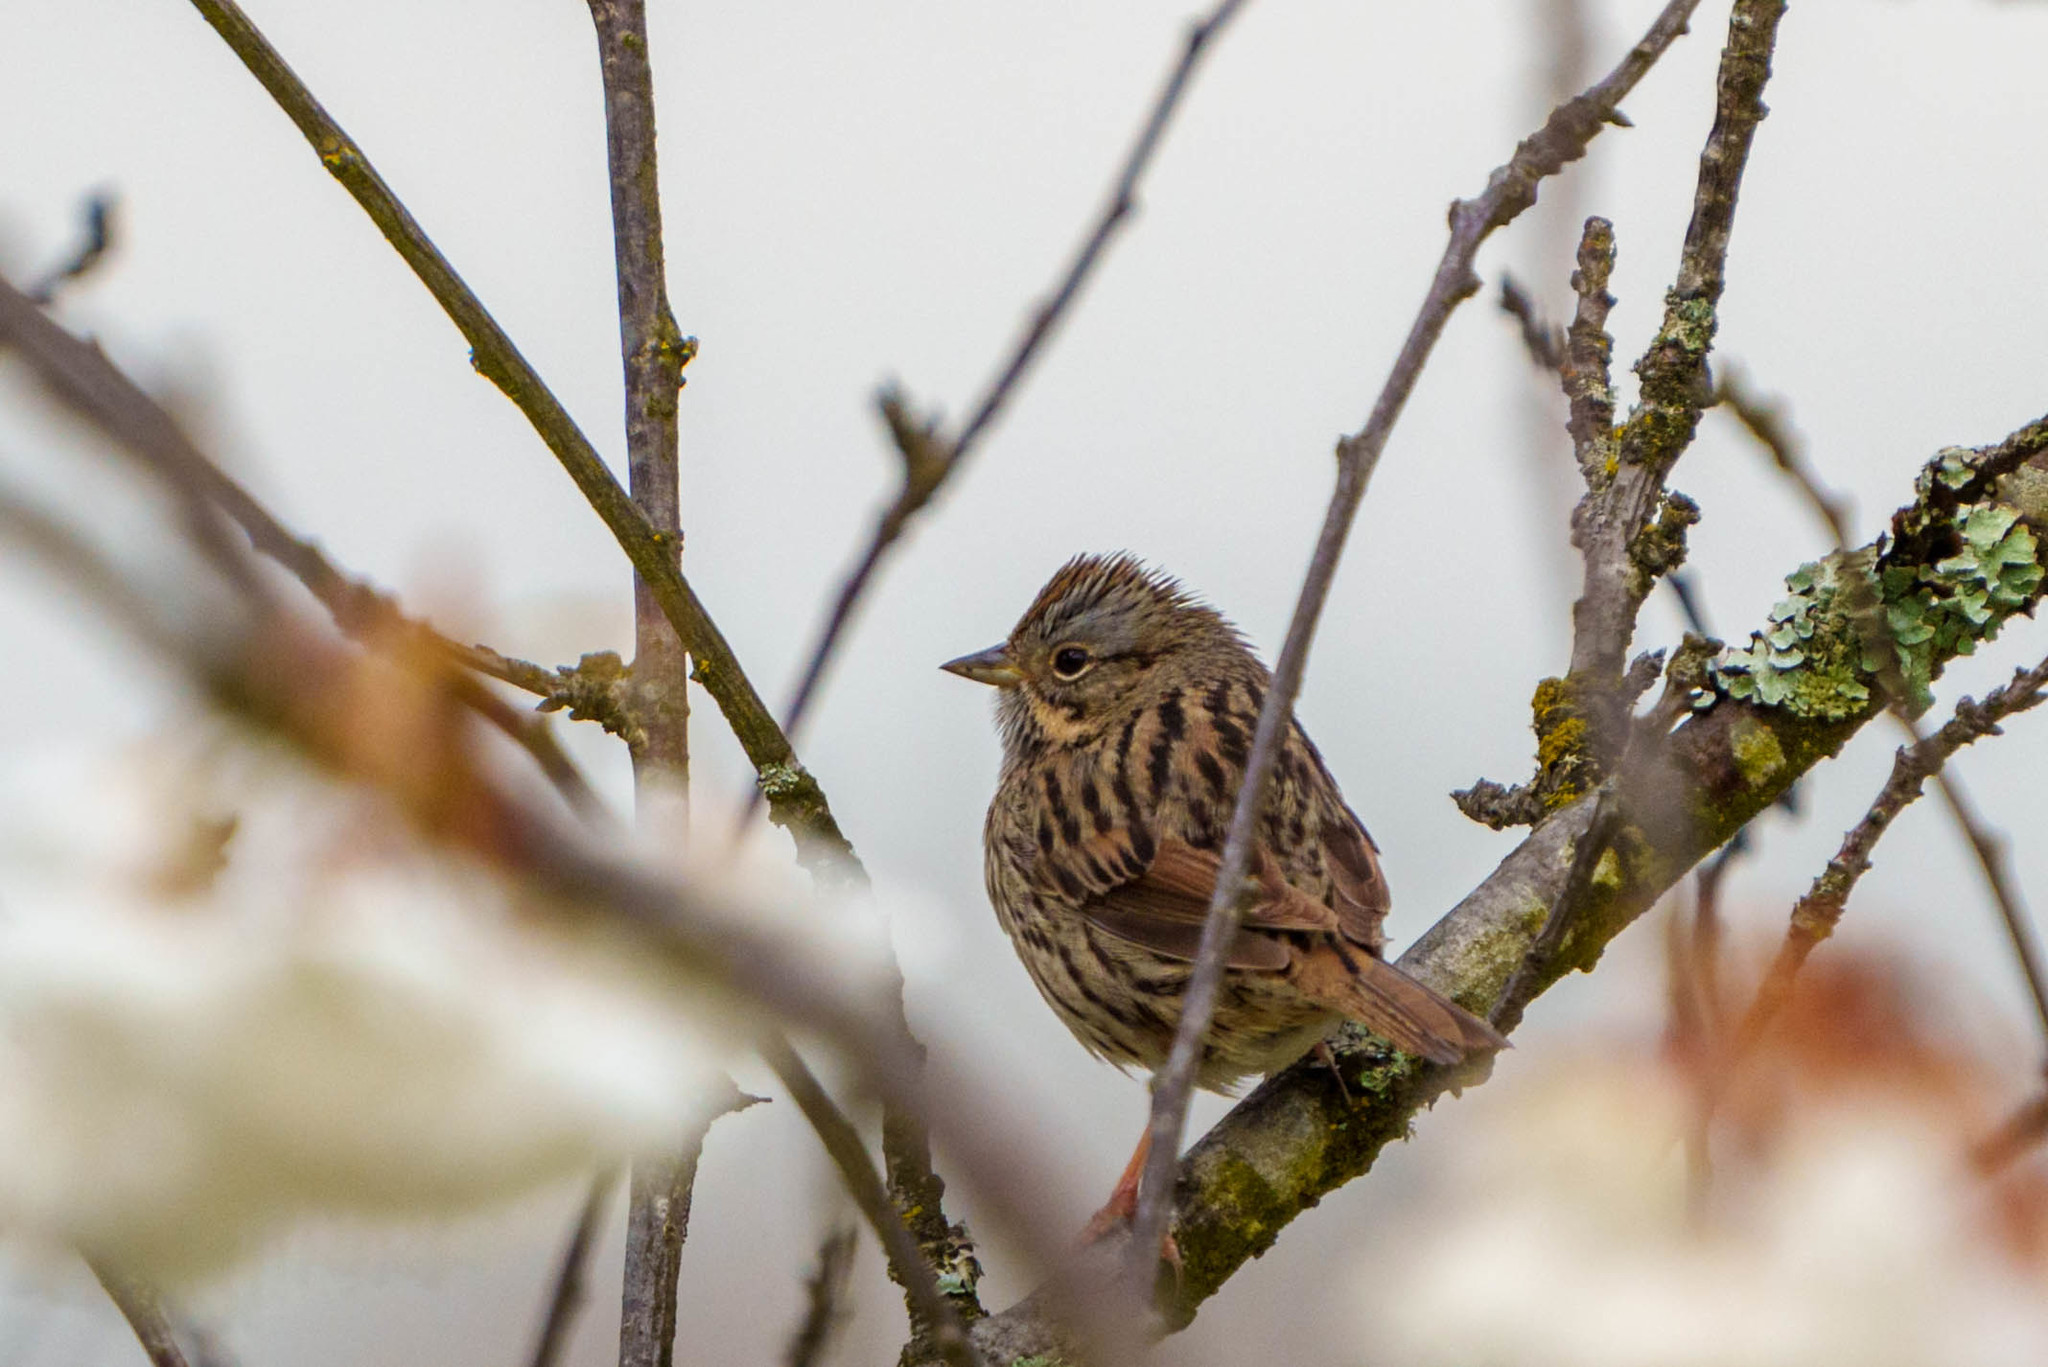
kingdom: Animalia
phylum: Chordata
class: Aves
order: Passeriformes
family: Passerellidae
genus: Melospiza
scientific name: Melospiza lincolnii
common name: Lincoln's sparrow
